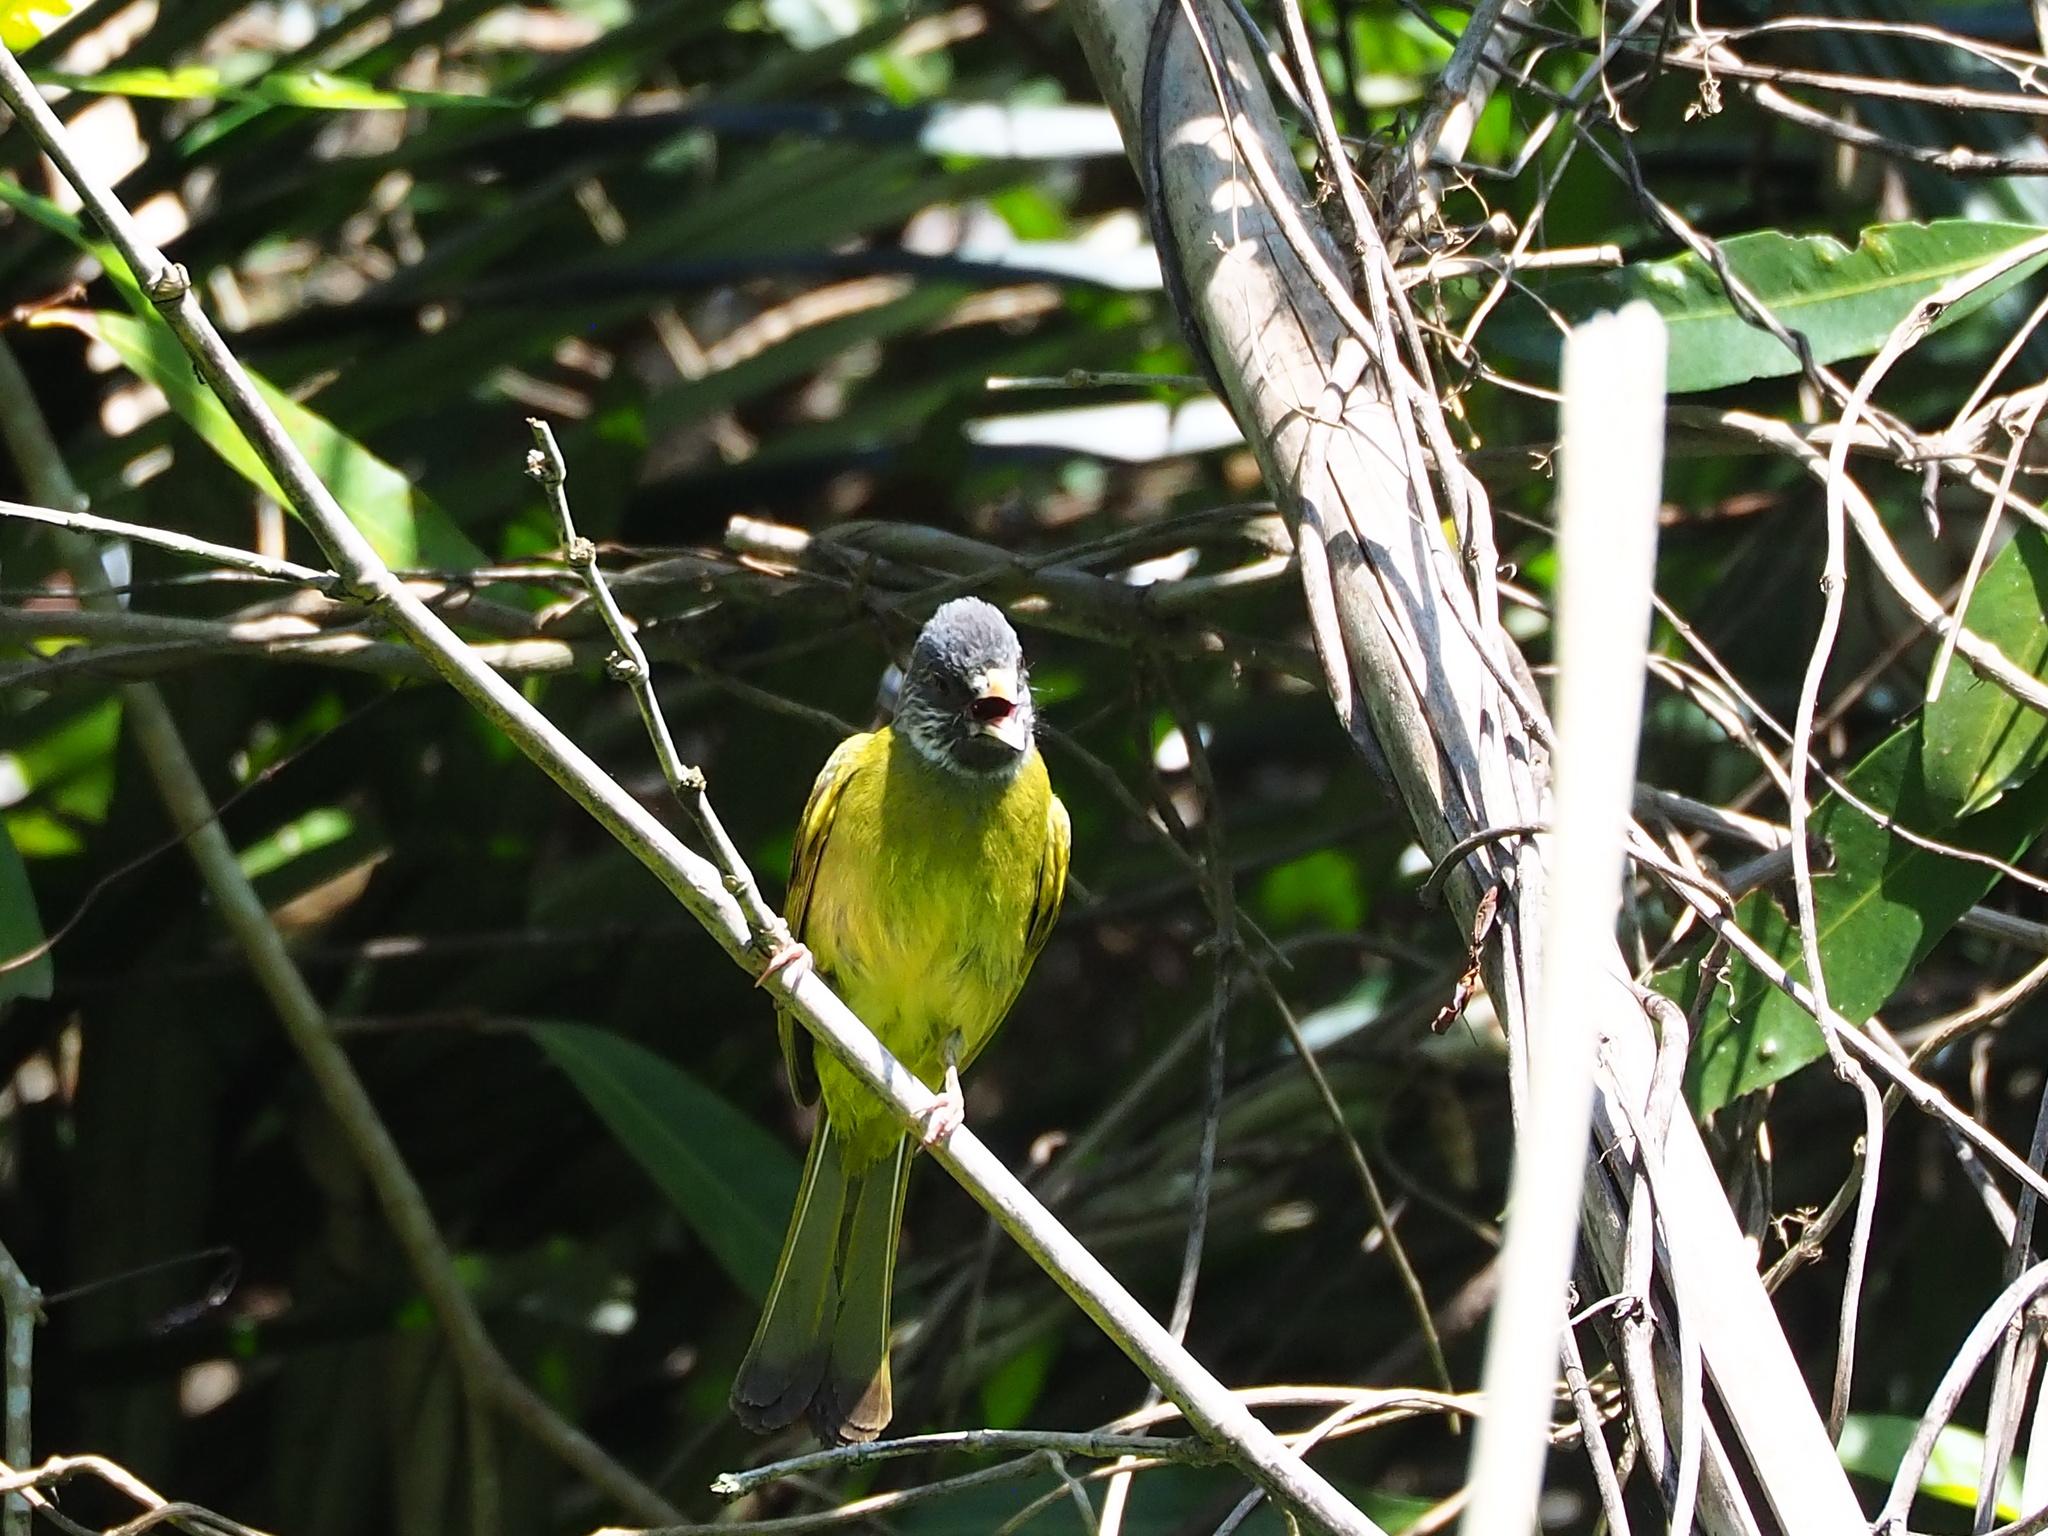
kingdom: Animalia
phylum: Chordata
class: Aves
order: Passeriformes
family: Pycnonotidae
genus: Spizixos
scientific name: Spizixos semitorques
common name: Collared finchbill
